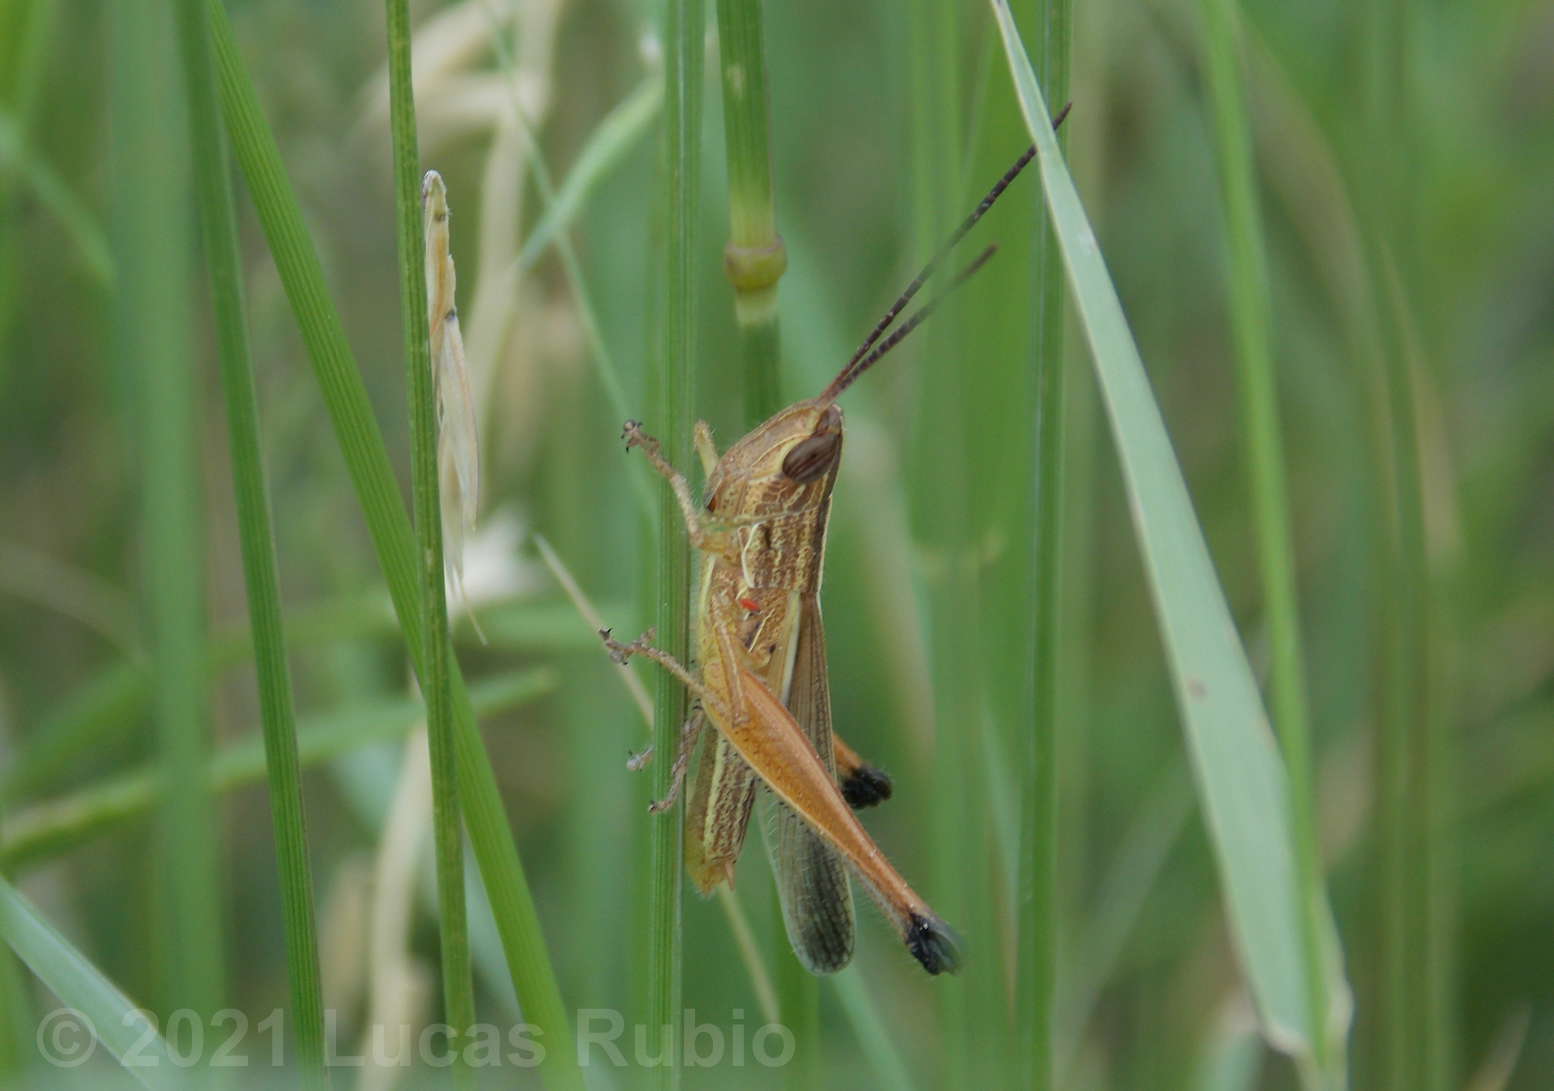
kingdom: Animalia
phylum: Arthropoda
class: Insecta
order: Orthoptera
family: Acrididae
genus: Staurorhectus
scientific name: Staurorhectus longicornis
